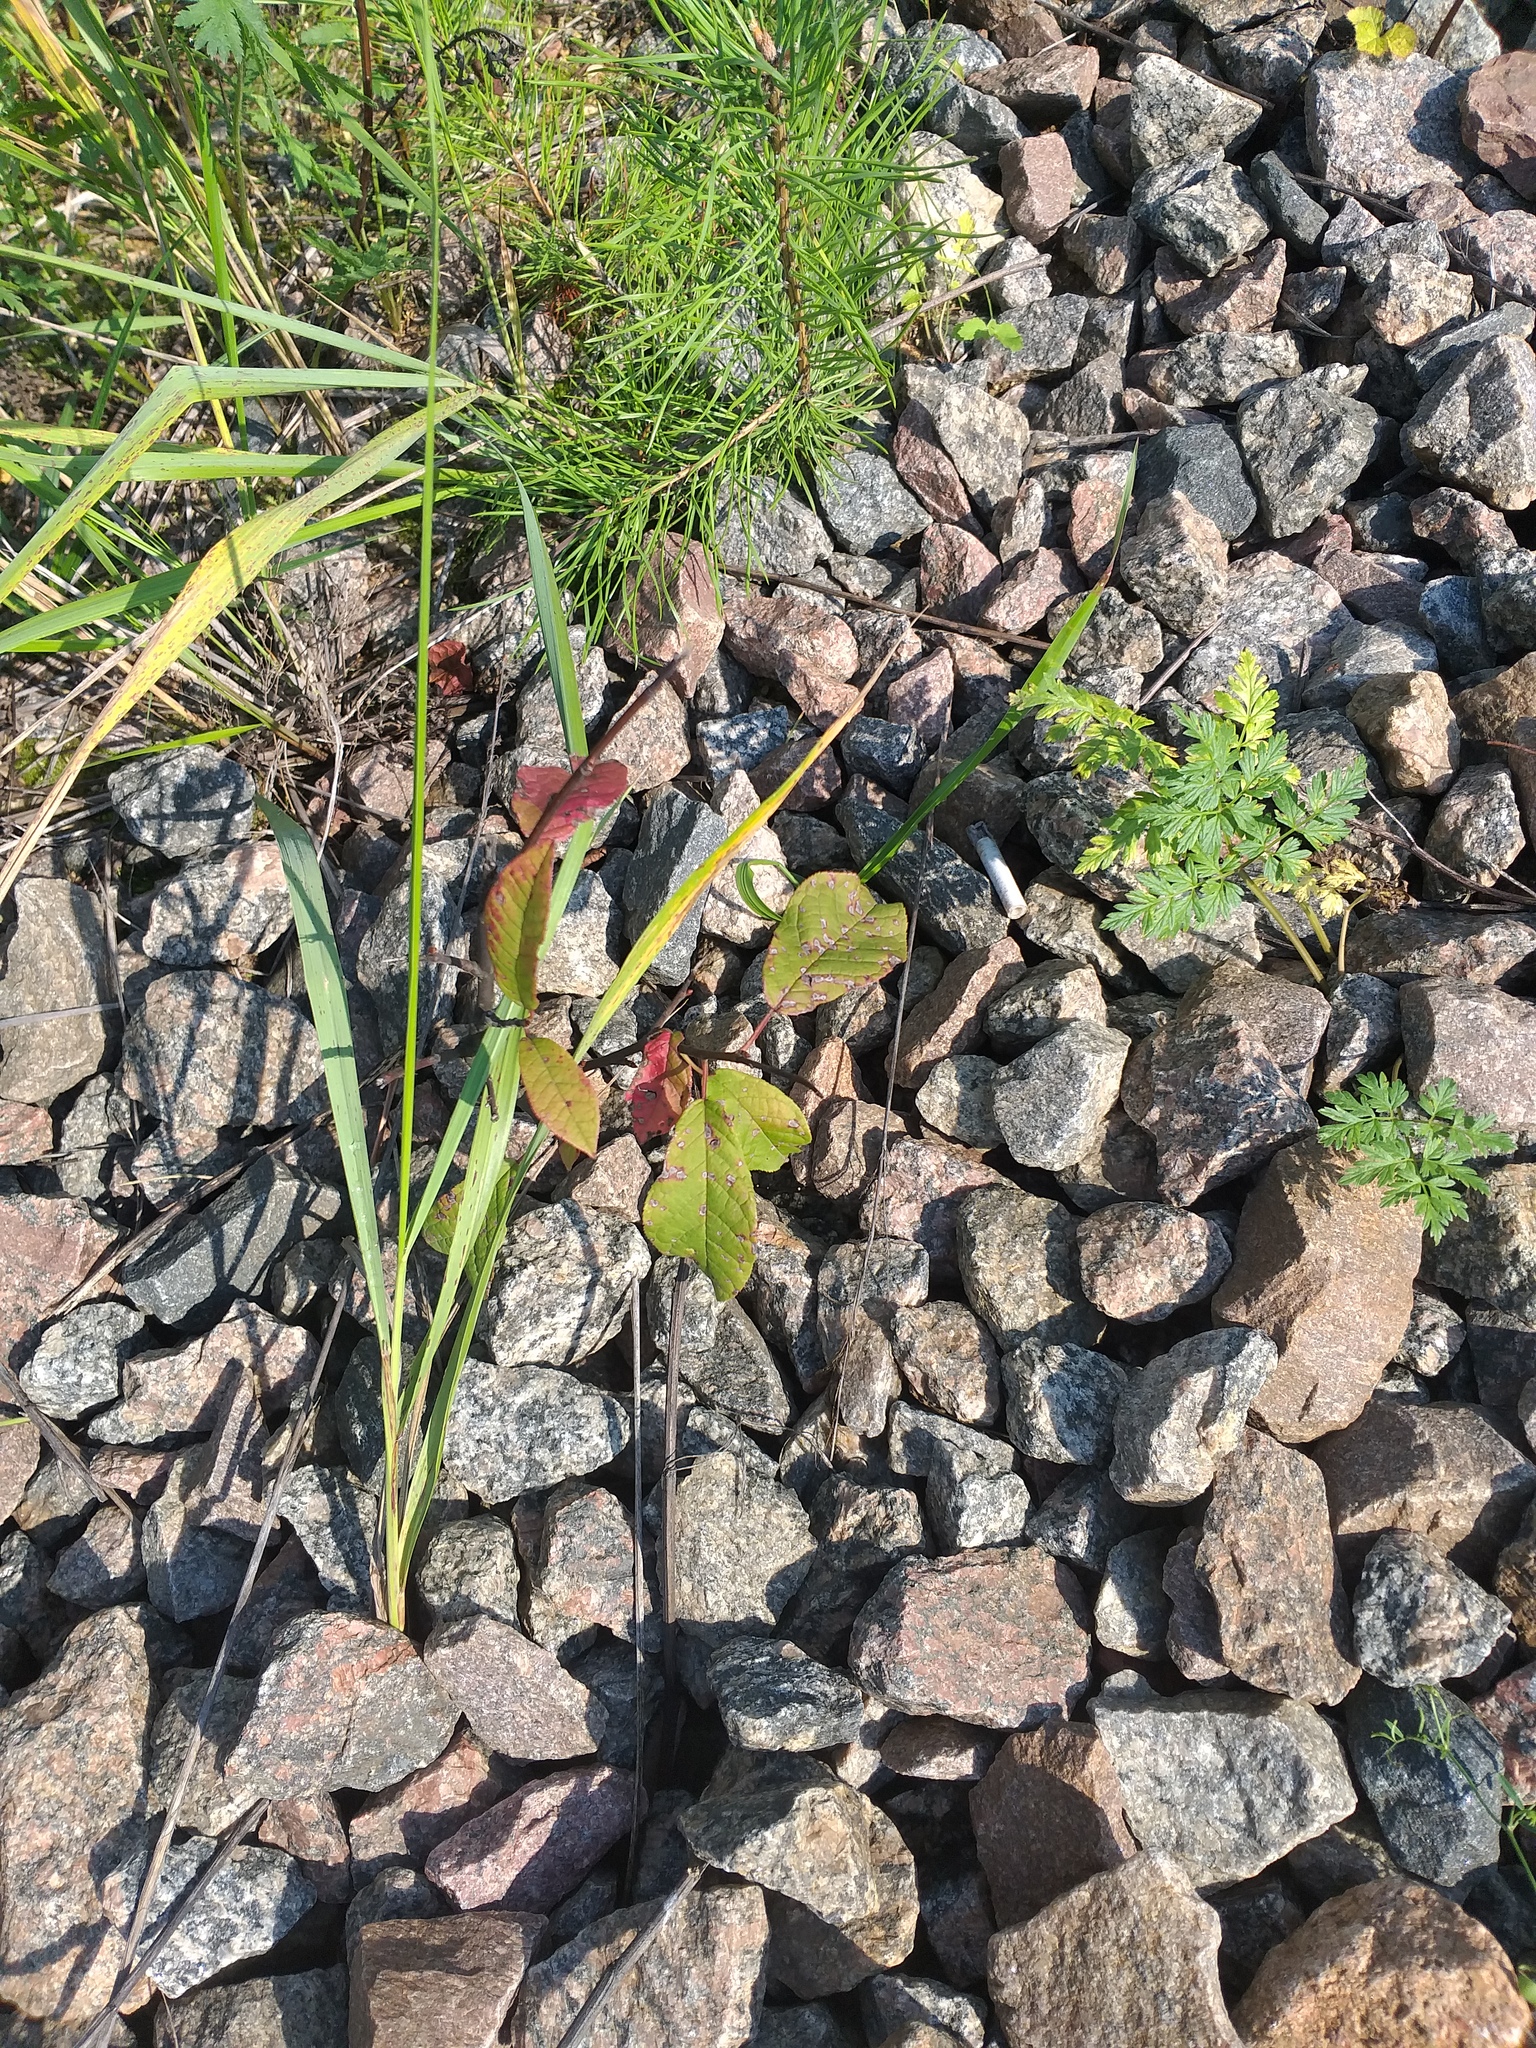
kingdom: Plantae
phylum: Tracheophyta
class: Magnoliopsida
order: Rosales
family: Rosaceae
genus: Prunus
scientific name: Prunus padus
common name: Bird cherry
